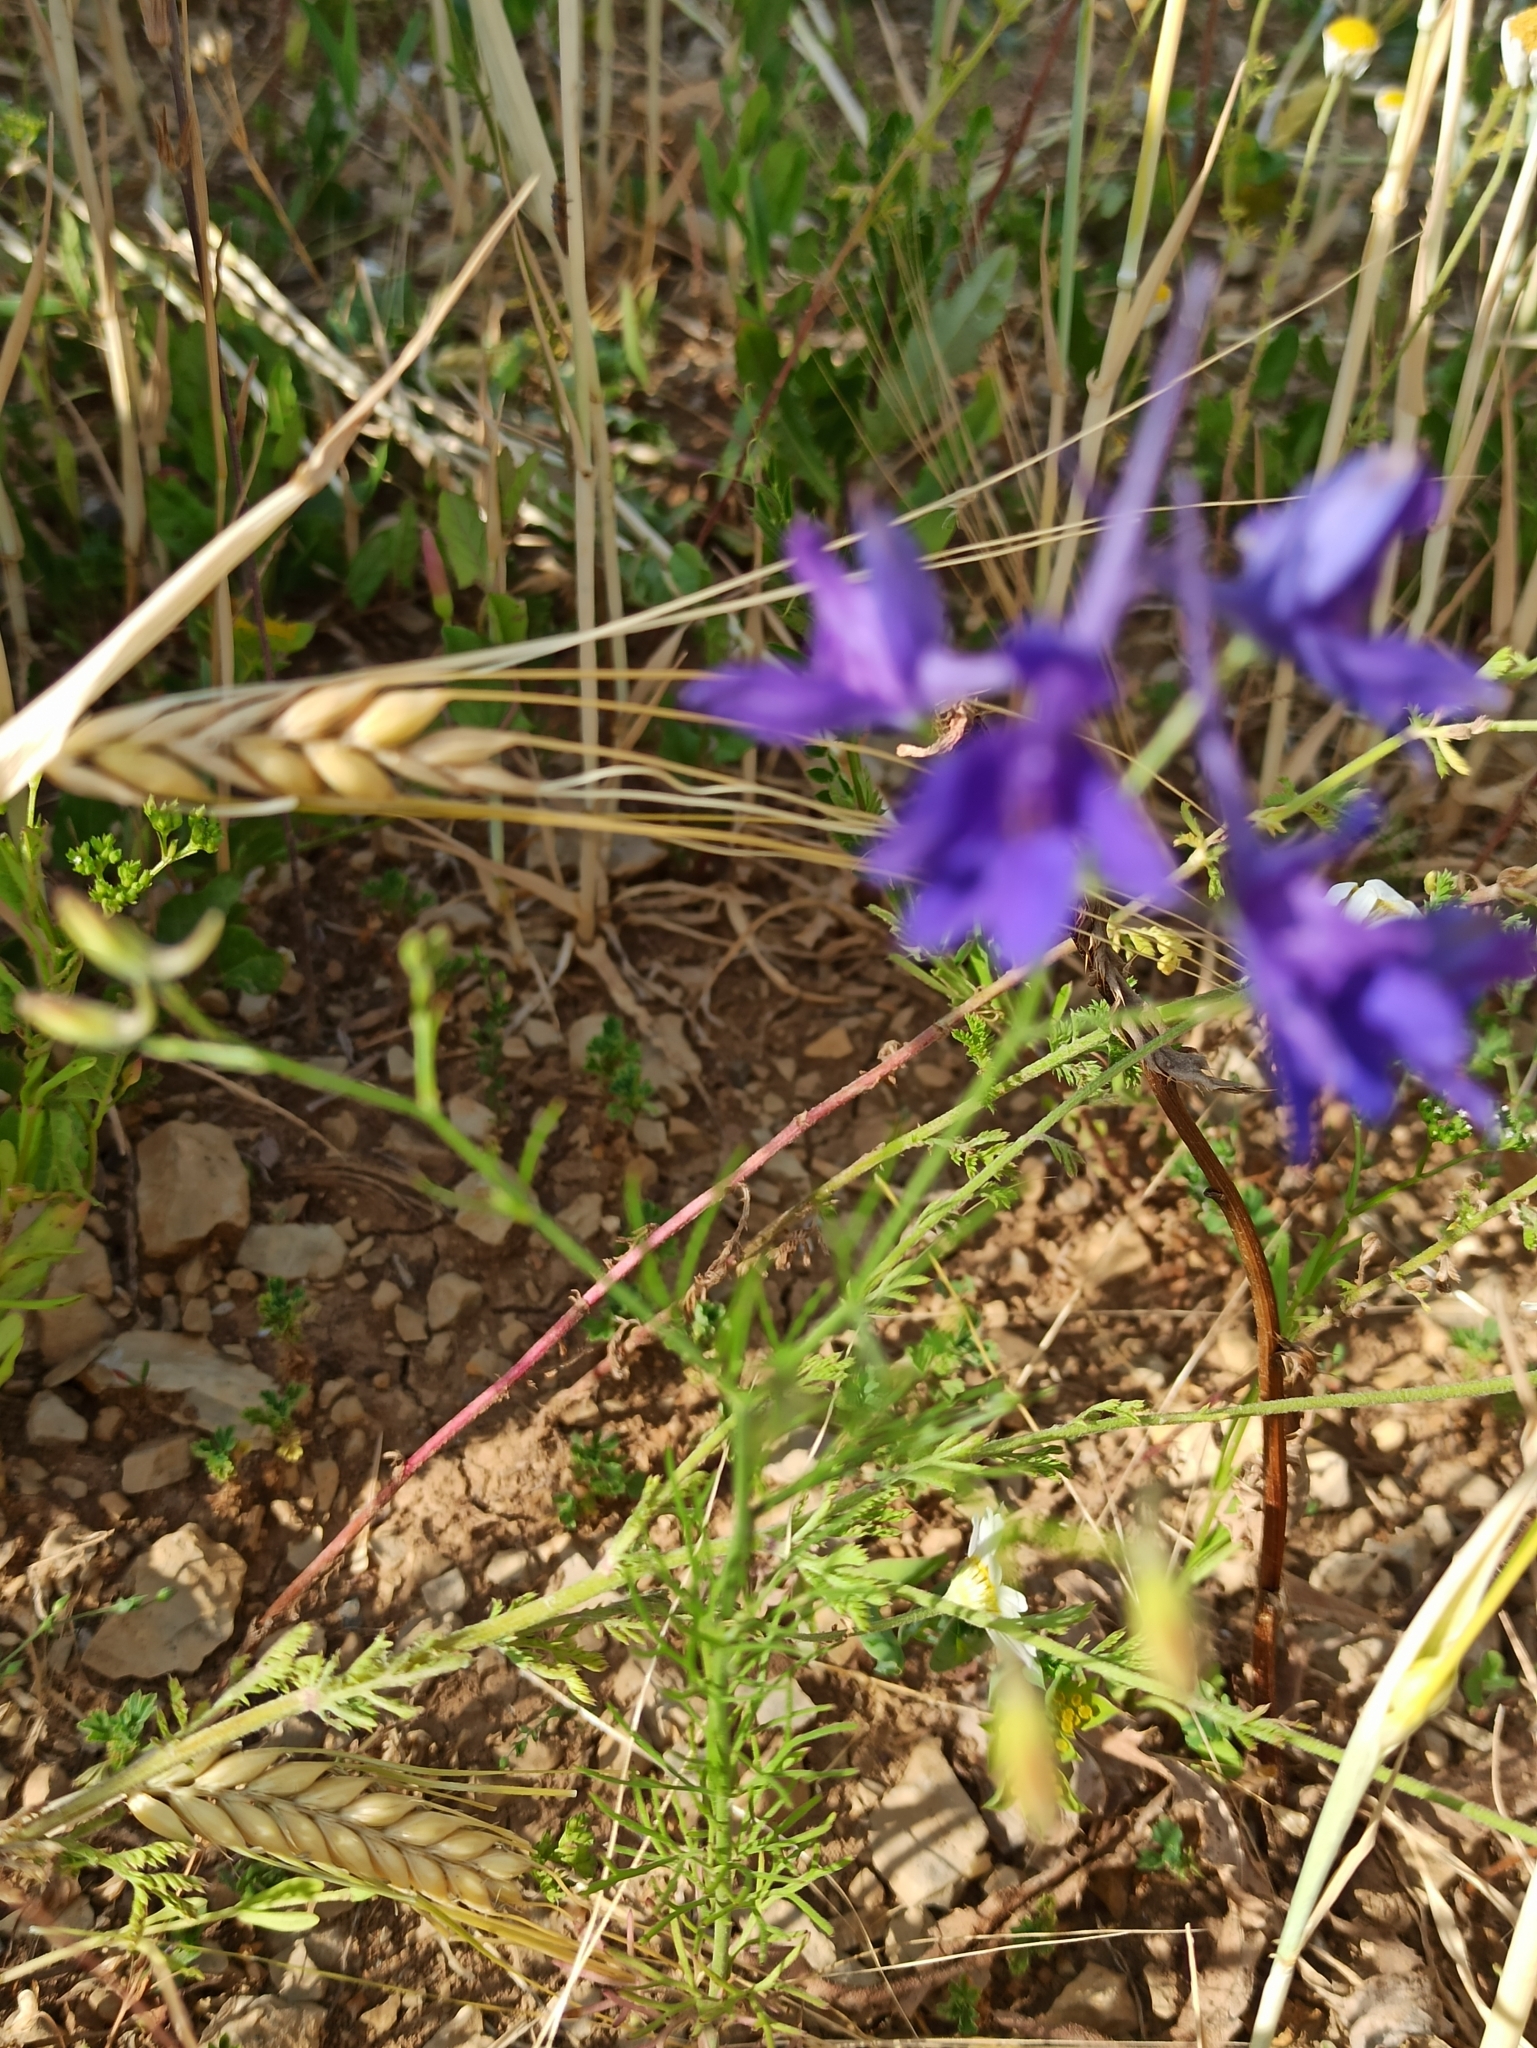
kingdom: Plantae
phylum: Tracheophyta
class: Magnoliopsida
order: Ranunculales
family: Ranunculaceae
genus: Delphinium
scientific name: Delphinium consolida
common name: Branching larkspur
